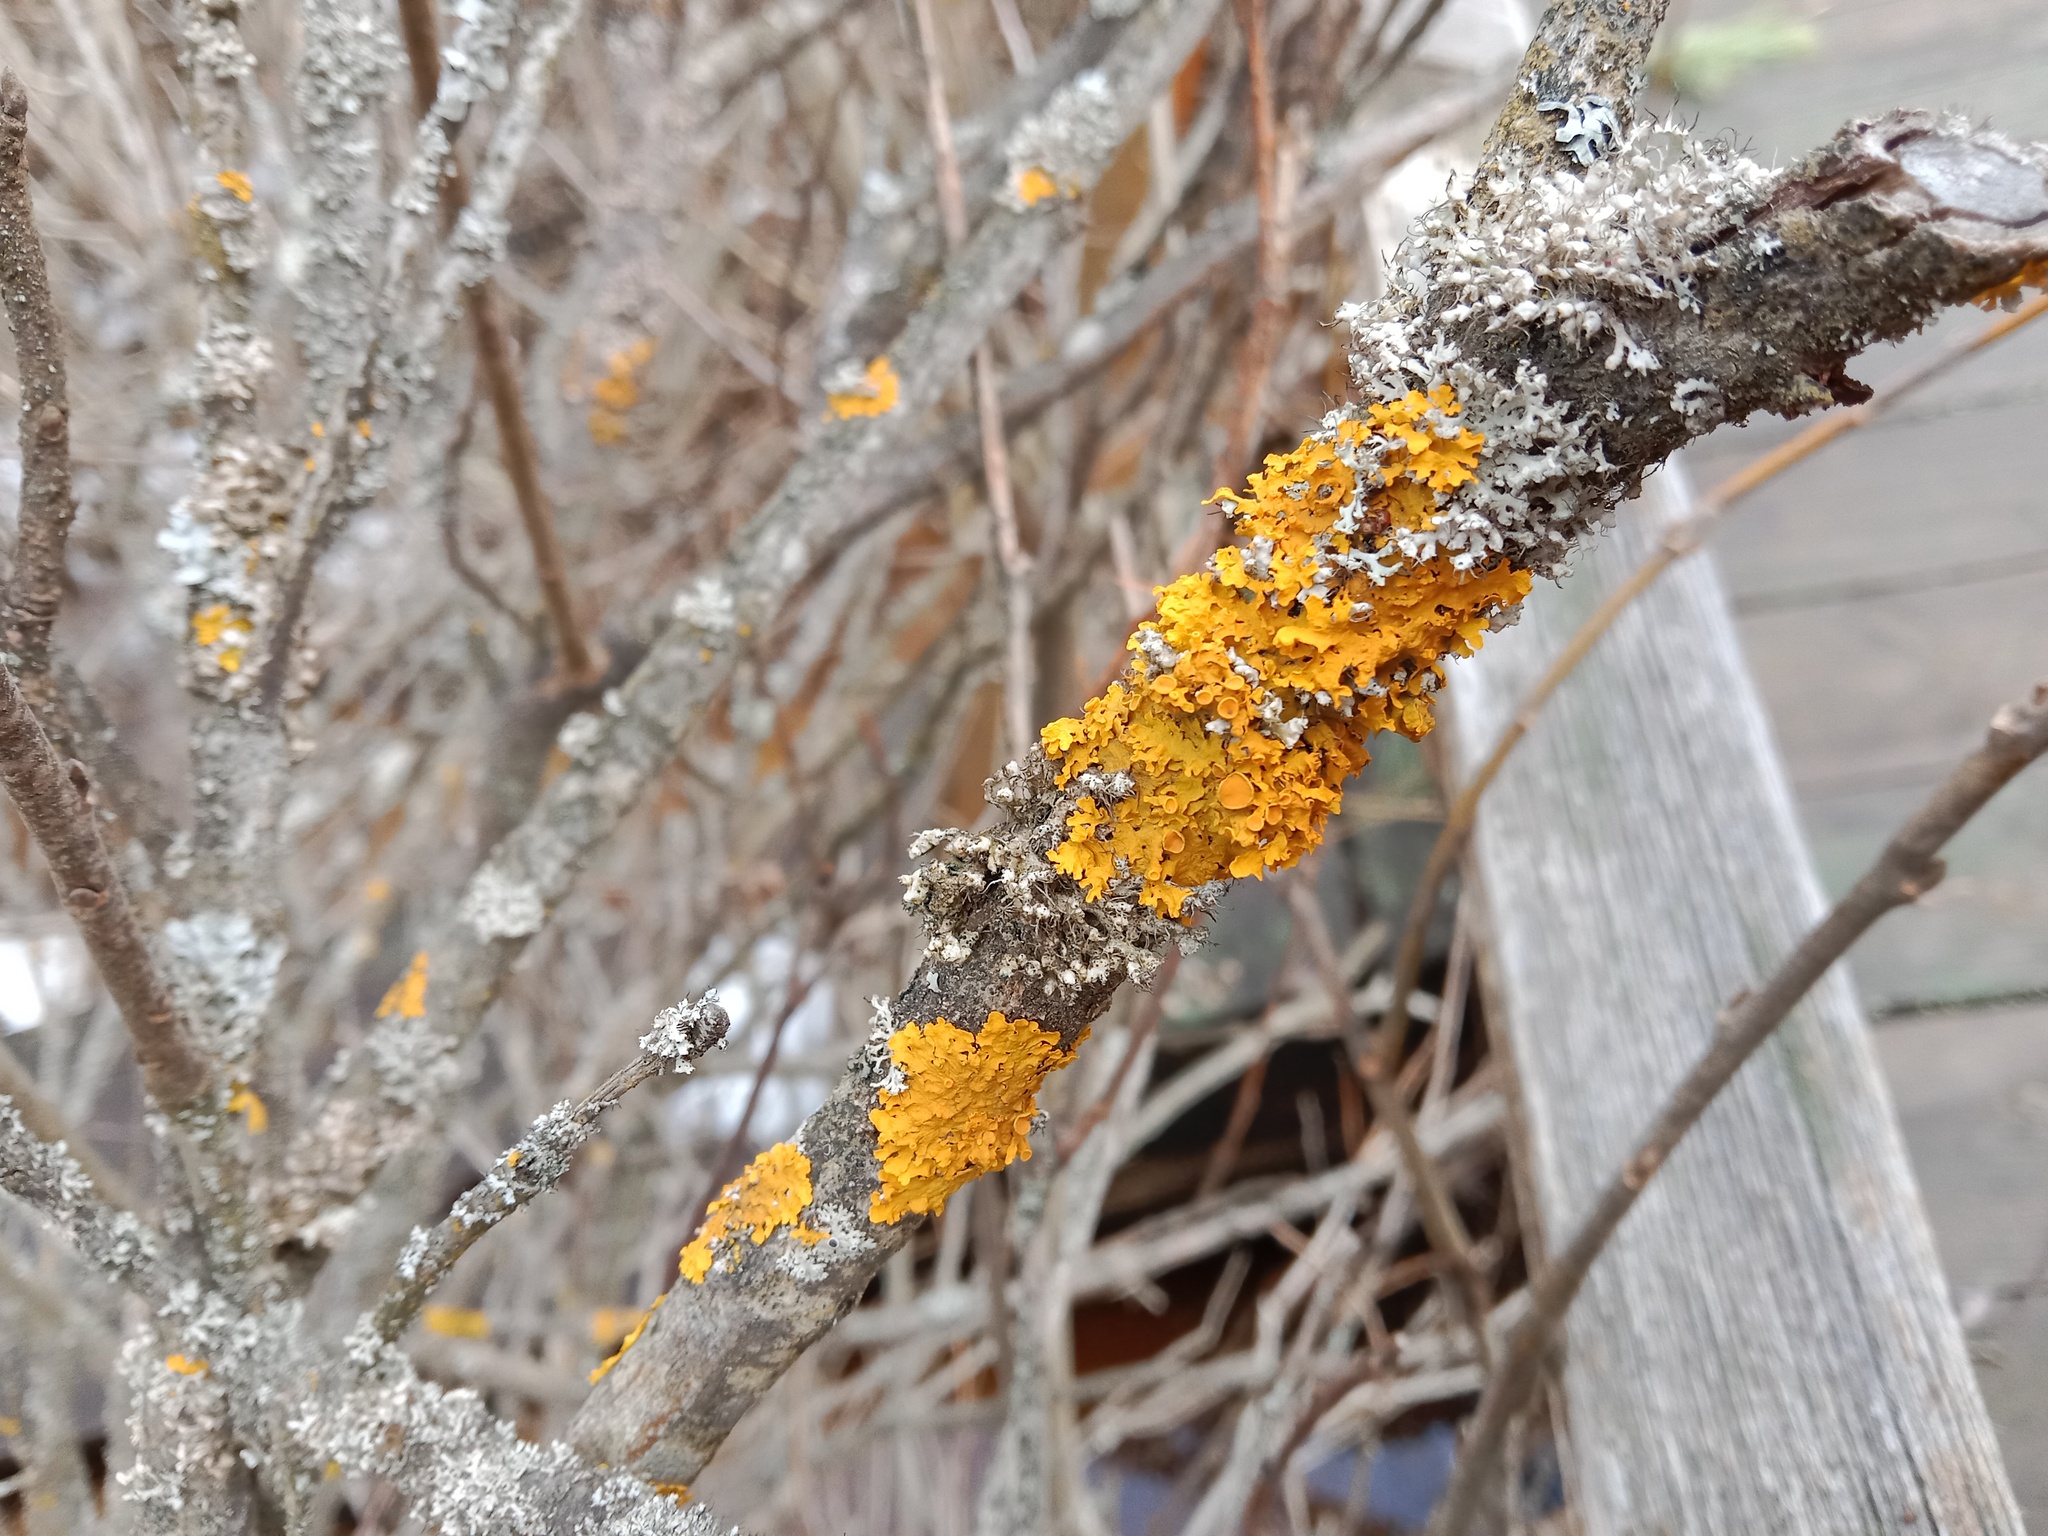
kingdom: Fungi
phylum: Ascomycota
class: Lecanoromycetes
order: Teloschistales
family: Teloschistaceae
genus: Xanthoria
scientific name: Xanthoria parietina
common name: Common orange lichen
